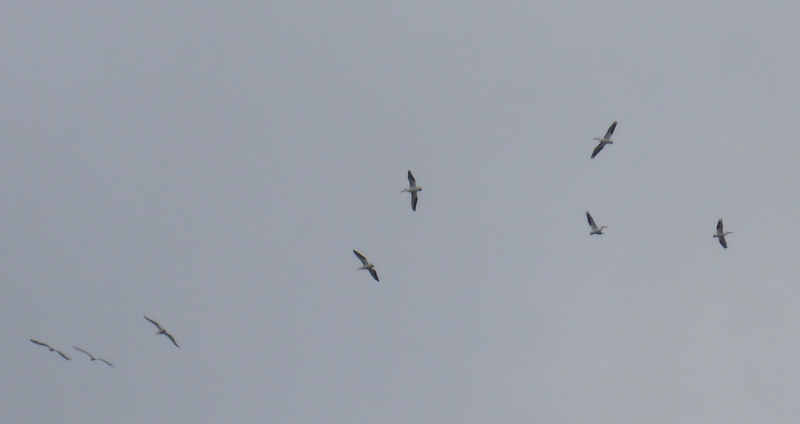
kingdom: Animalia
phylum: Chordata
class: Aves
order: Pelecaniformes
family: Pelecanidae
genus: Pelecanus
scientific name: Pelecanus erythrorhynchos
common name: American white pelican
